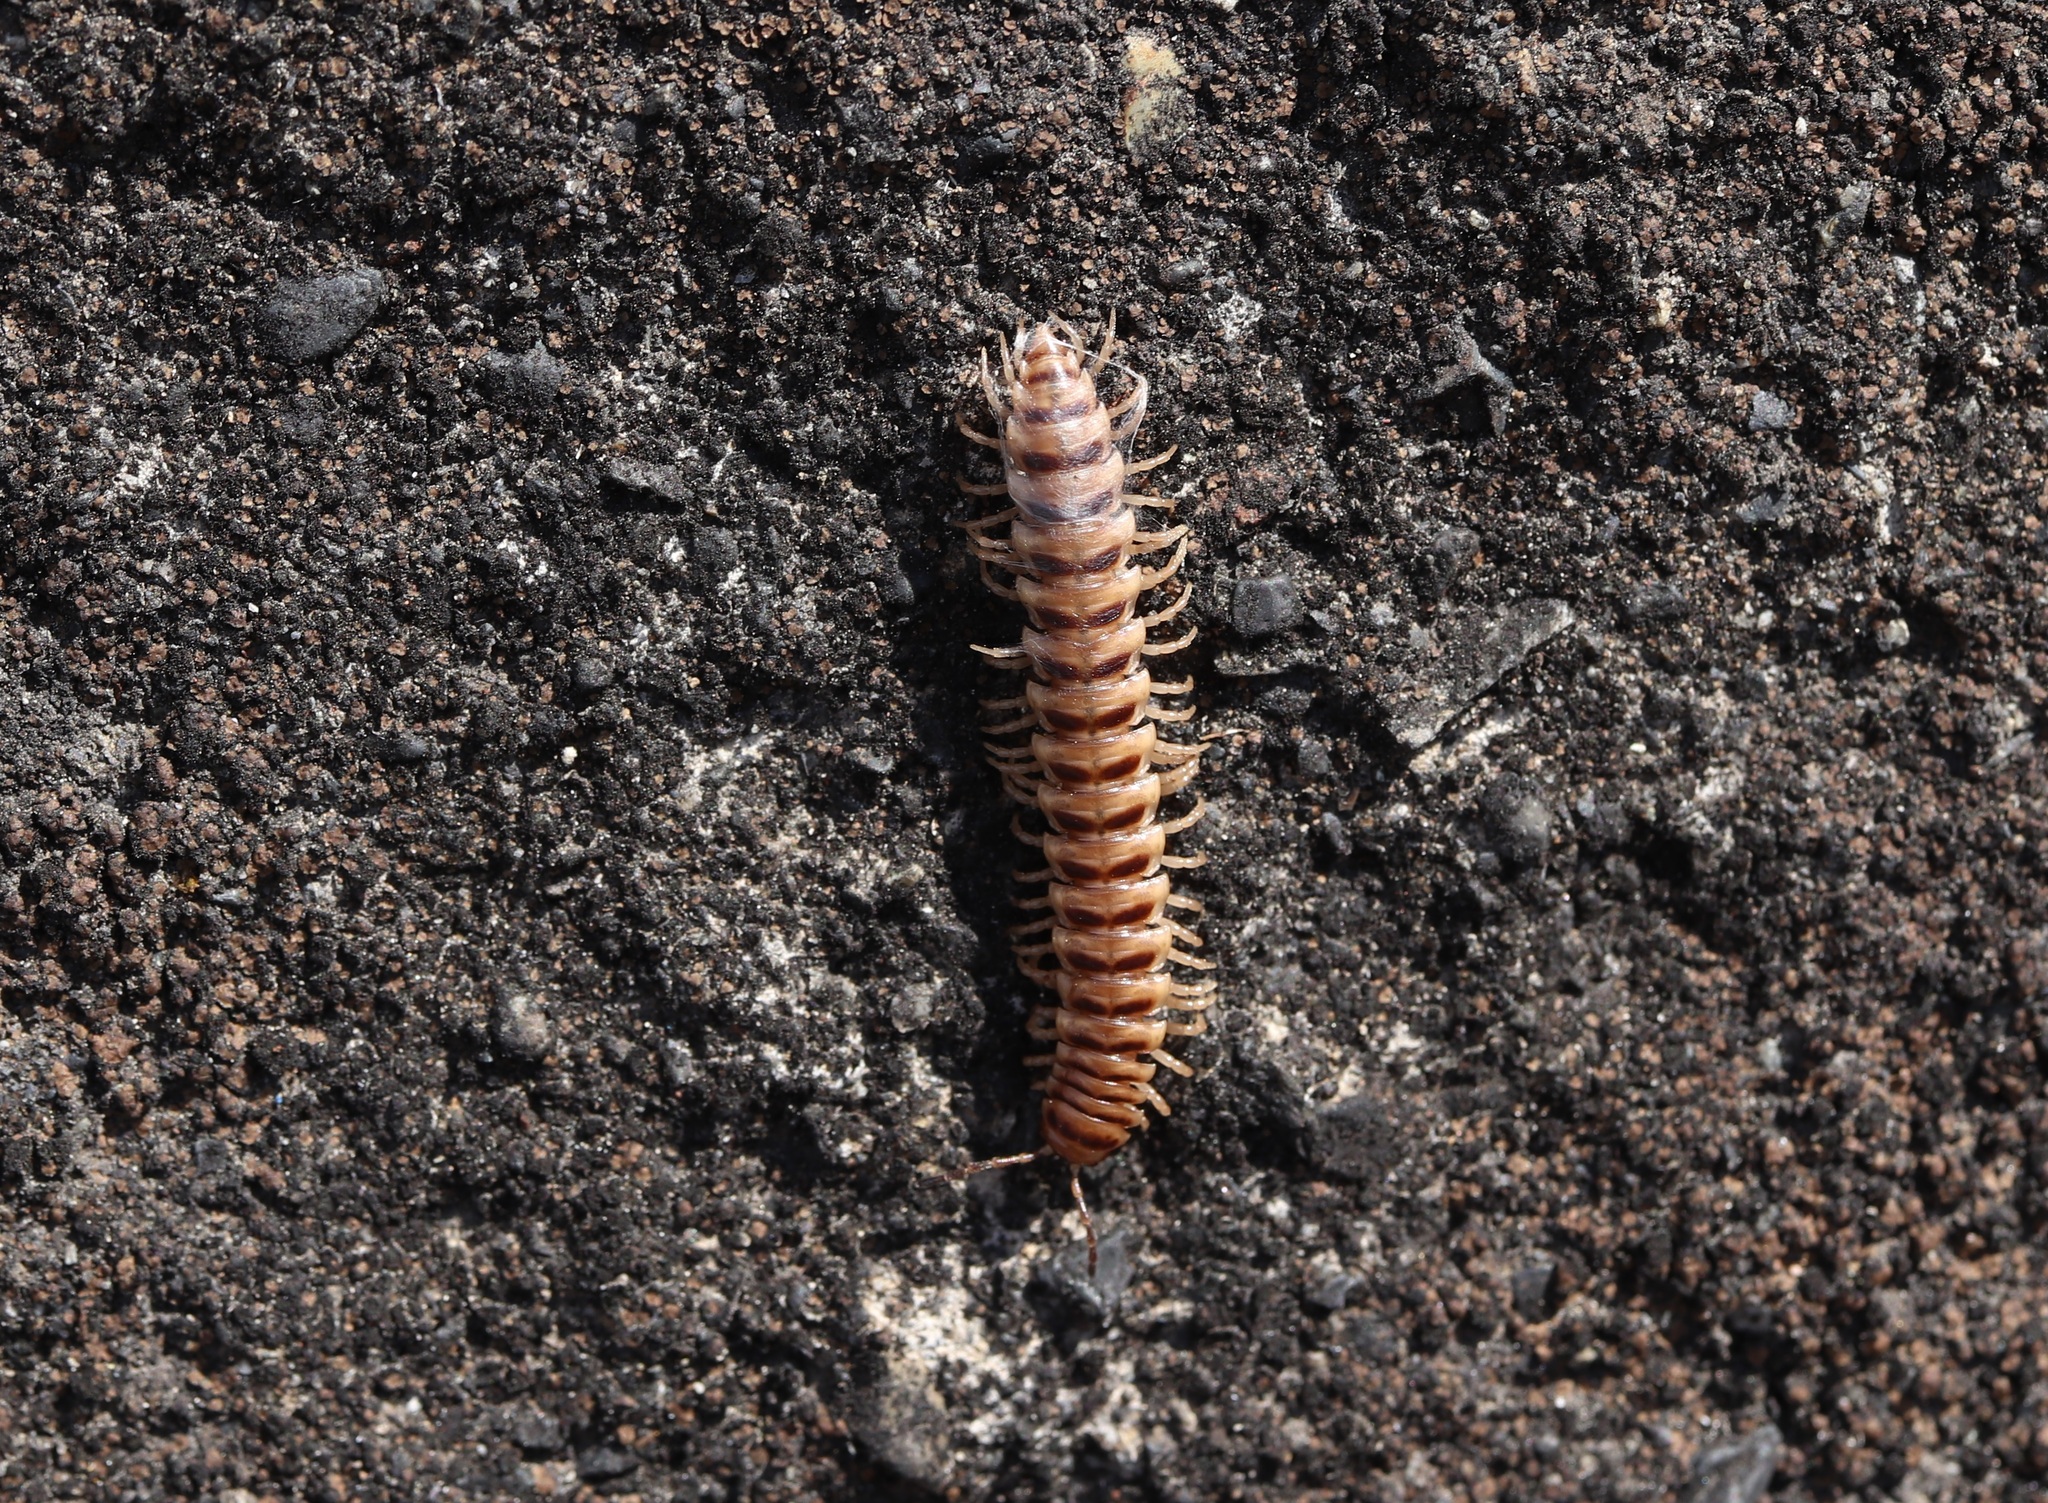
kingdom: Animalia
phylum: Arthropoda
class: Diplopoda
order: Polydesmida
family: Paradoxosomatidae
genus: Chamberlinius
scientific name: Chamberlinius hualienensis
